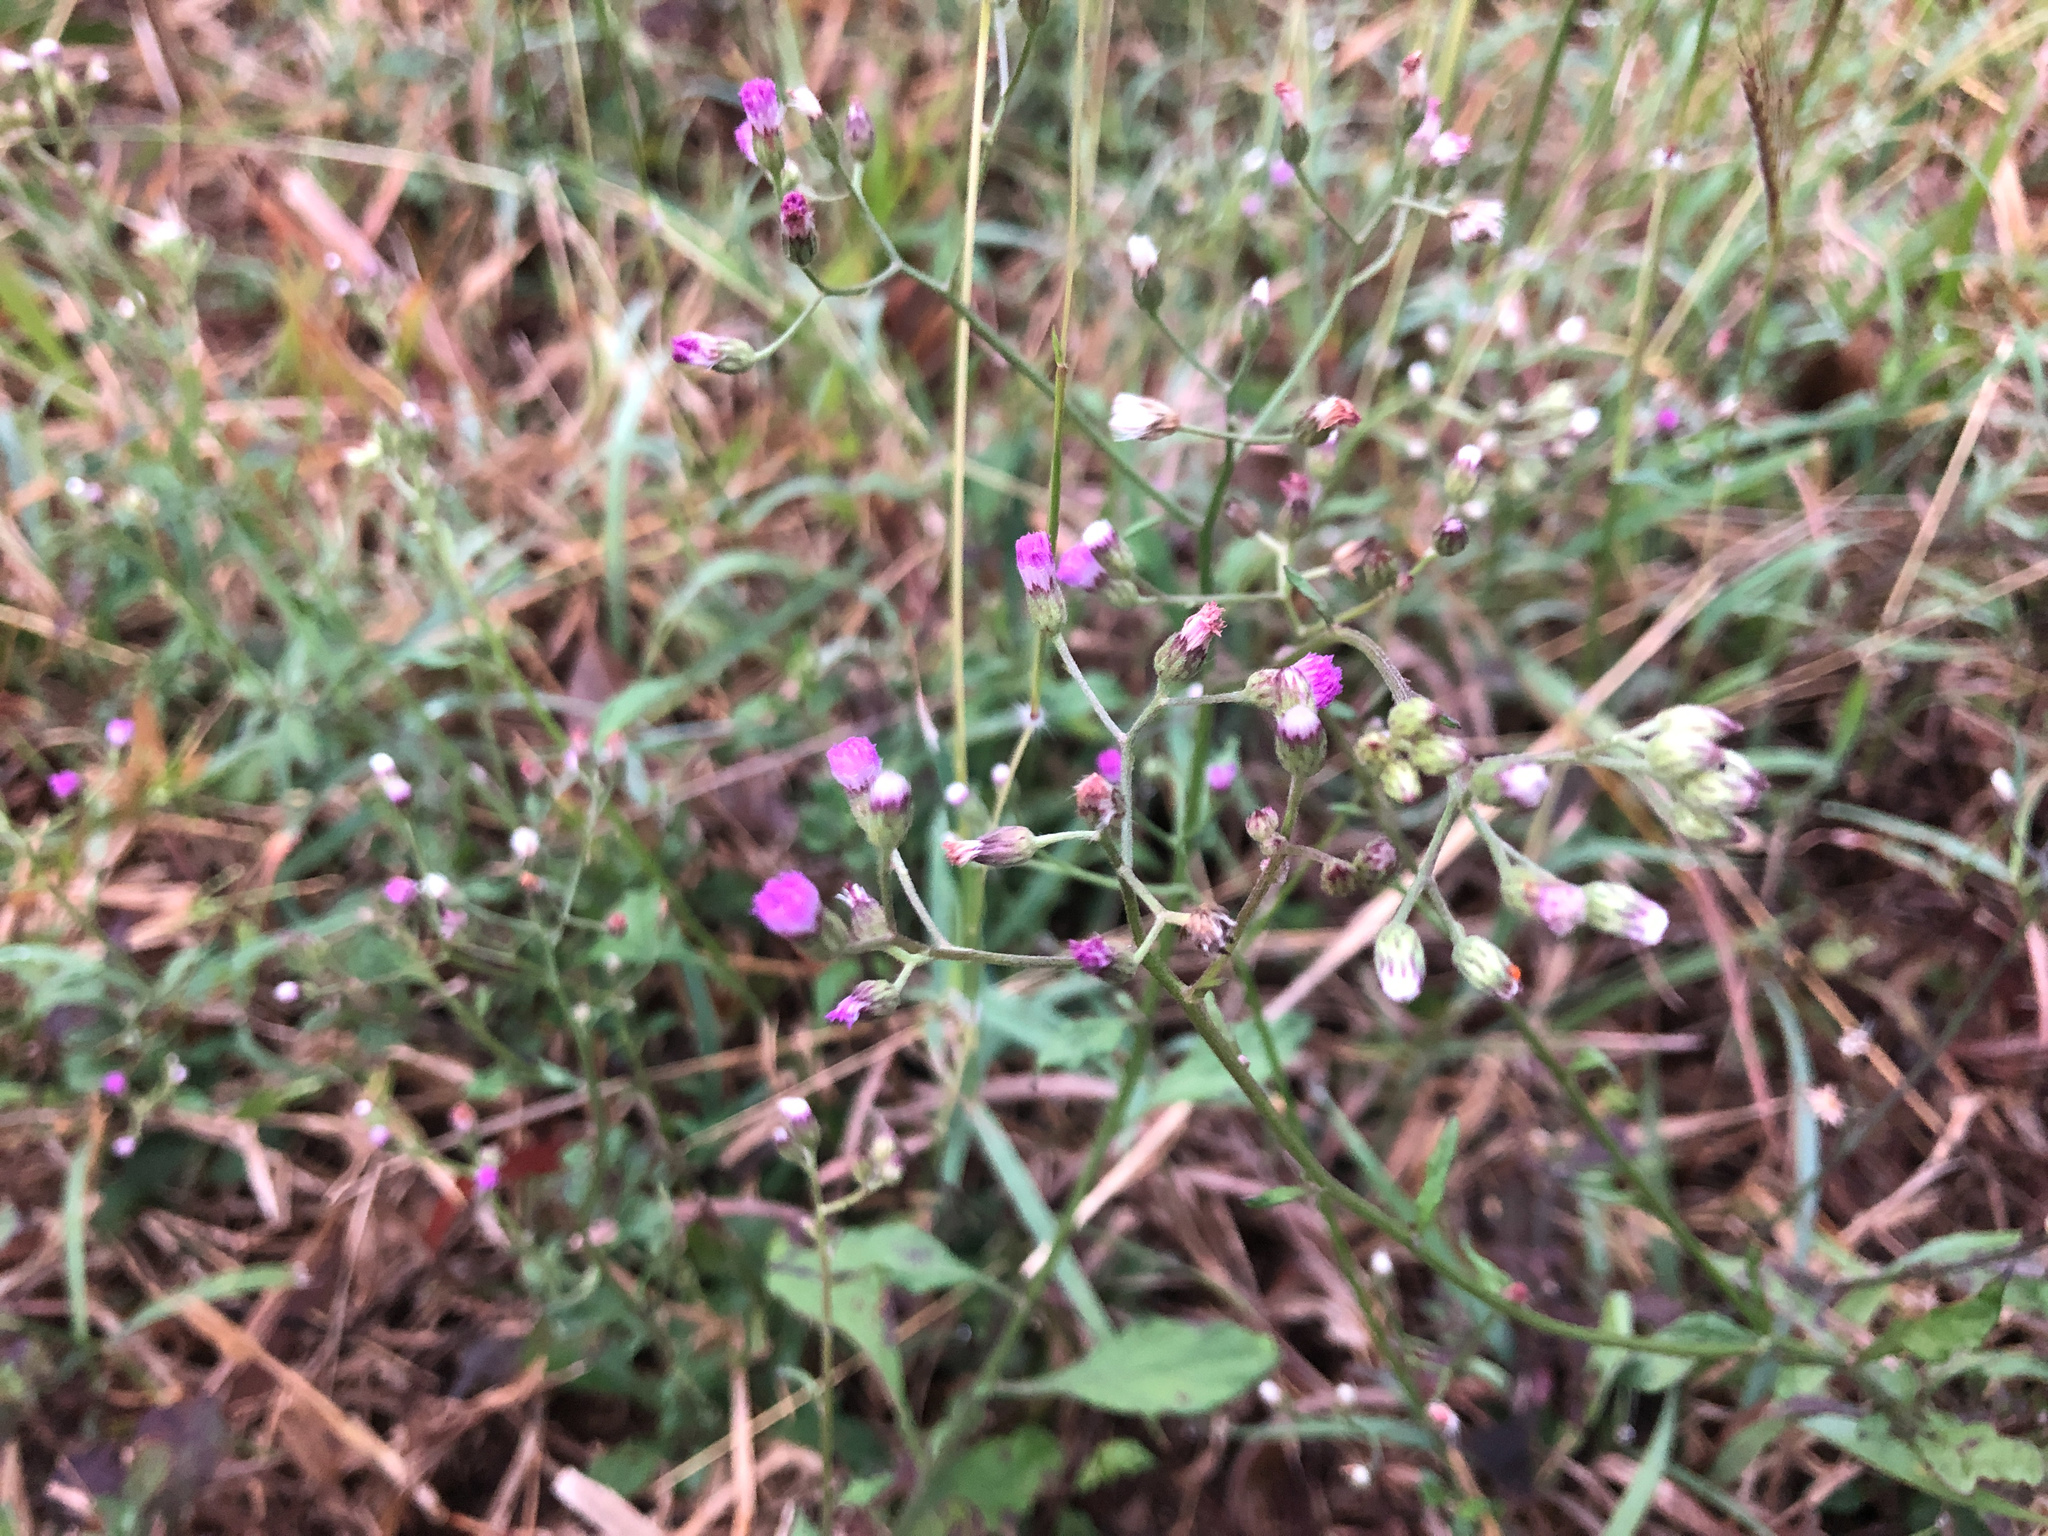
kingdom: Plantae
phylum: Tracheophyta
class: Magnoliopsida
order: Asterales
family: Asteraceae
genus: Cyanthillium
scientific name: Cyanthillium cinereum
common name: Little ironweed
